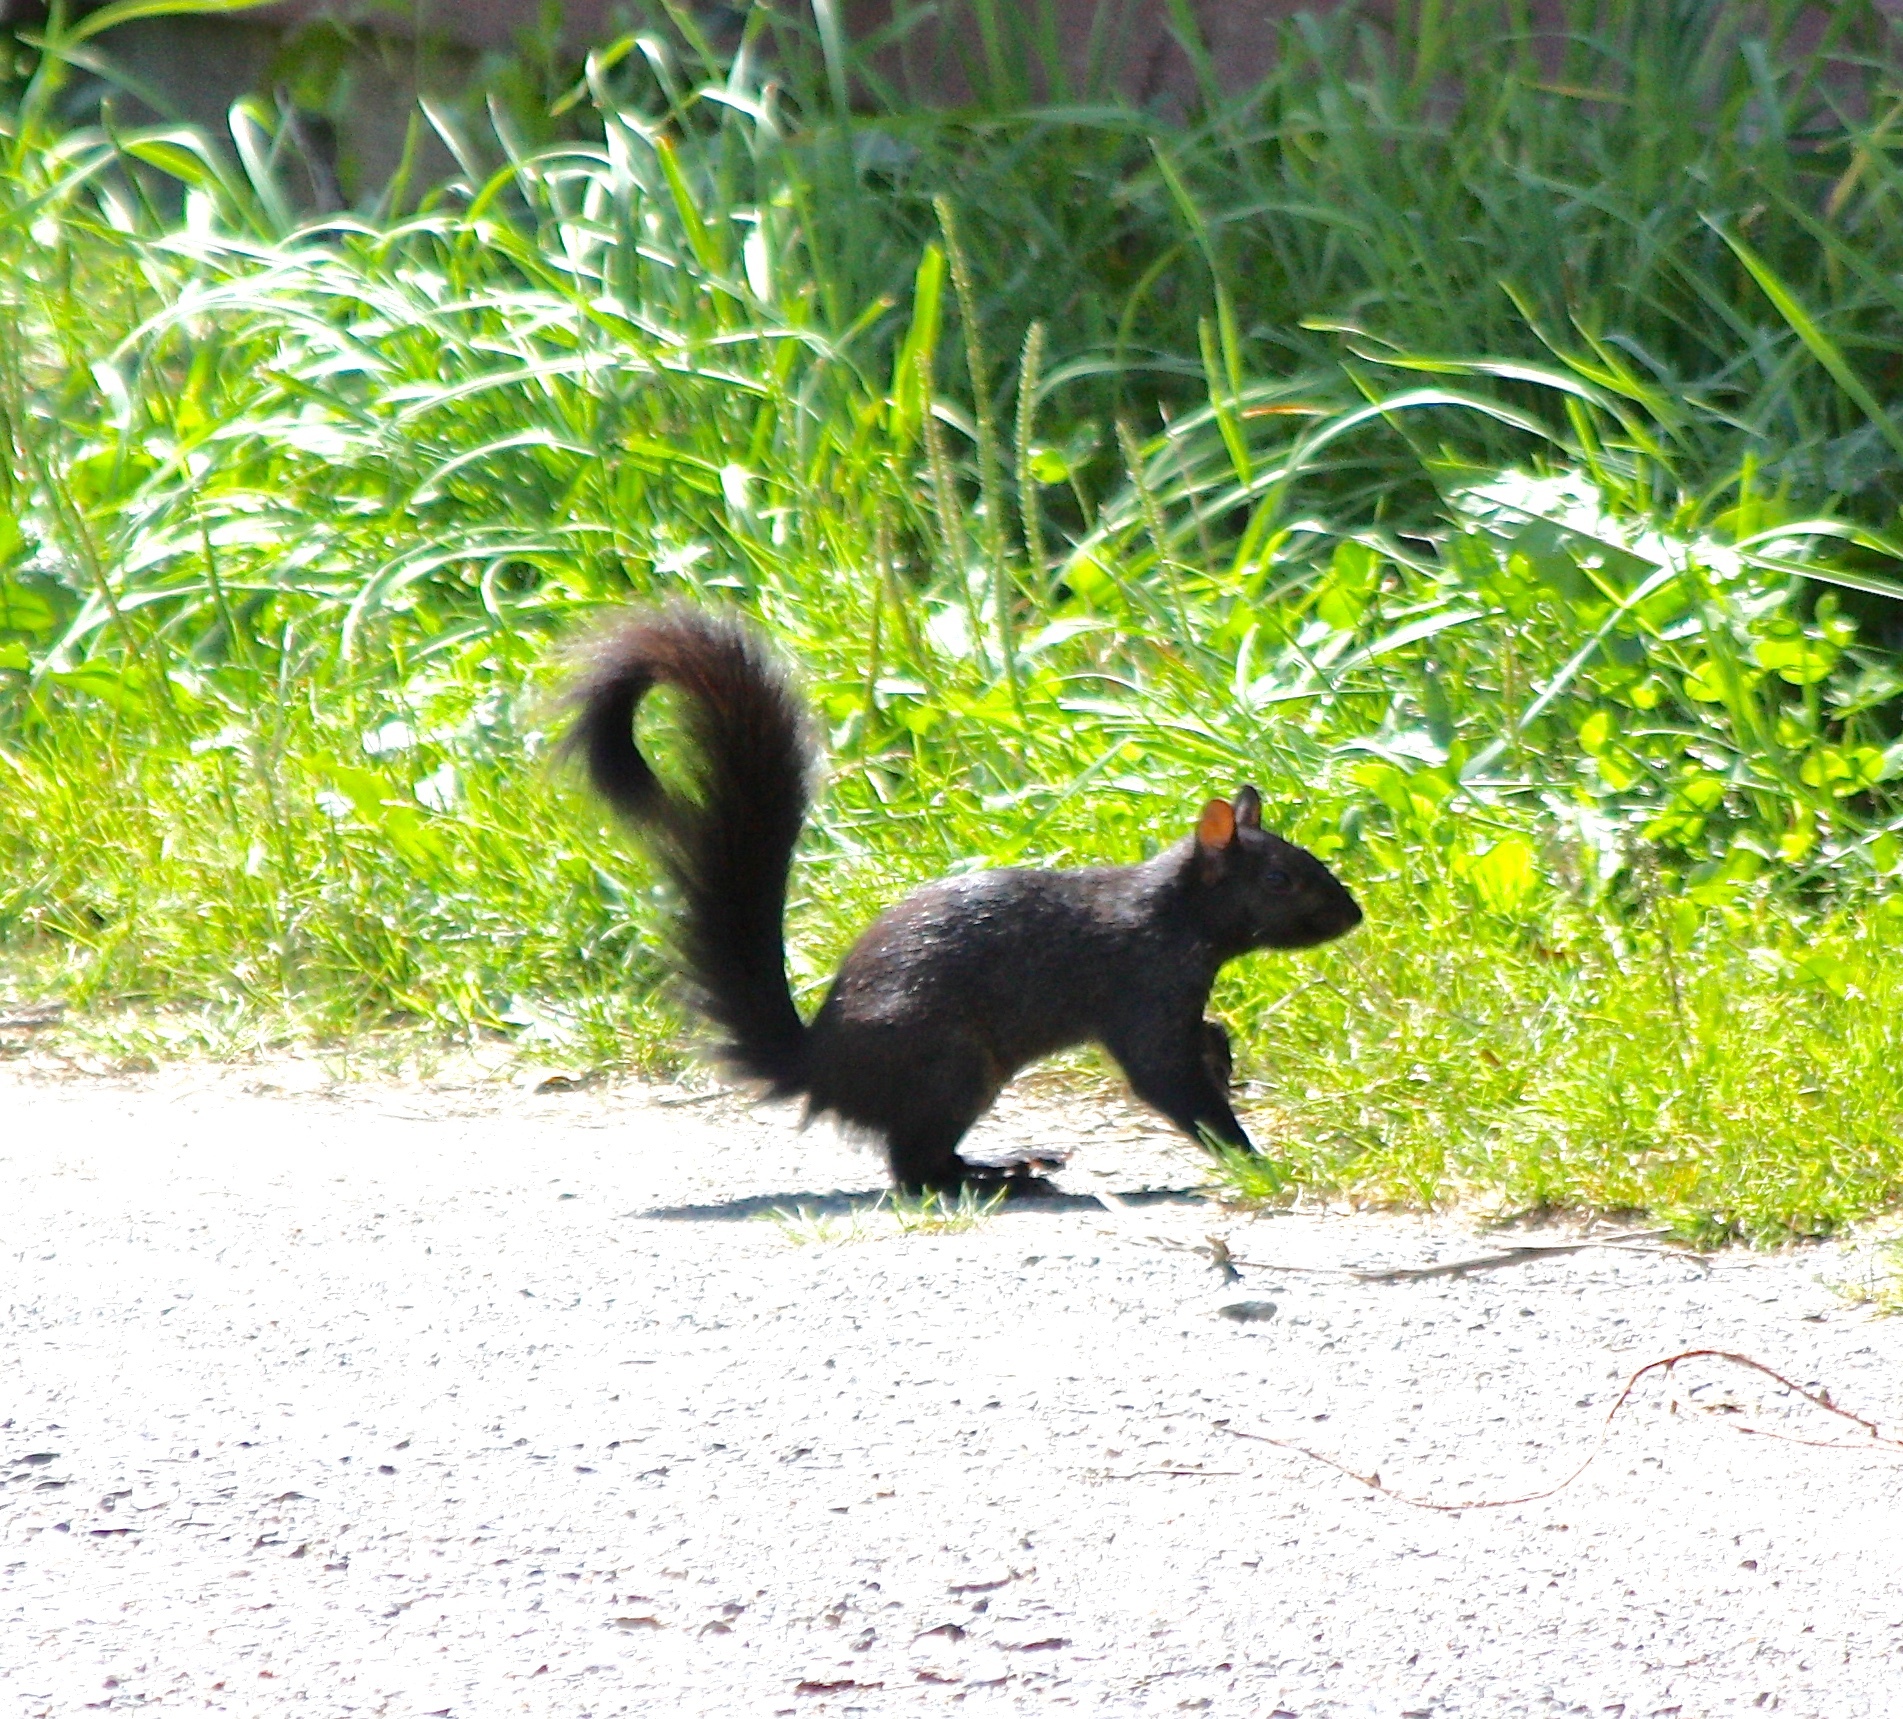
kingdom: Animalia
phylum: Chordata
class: Mammalia
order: Rodentia
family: Sciuridae
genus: Sciurus
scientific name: Sciurus carolinensis
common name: Eastern gray squirrel
